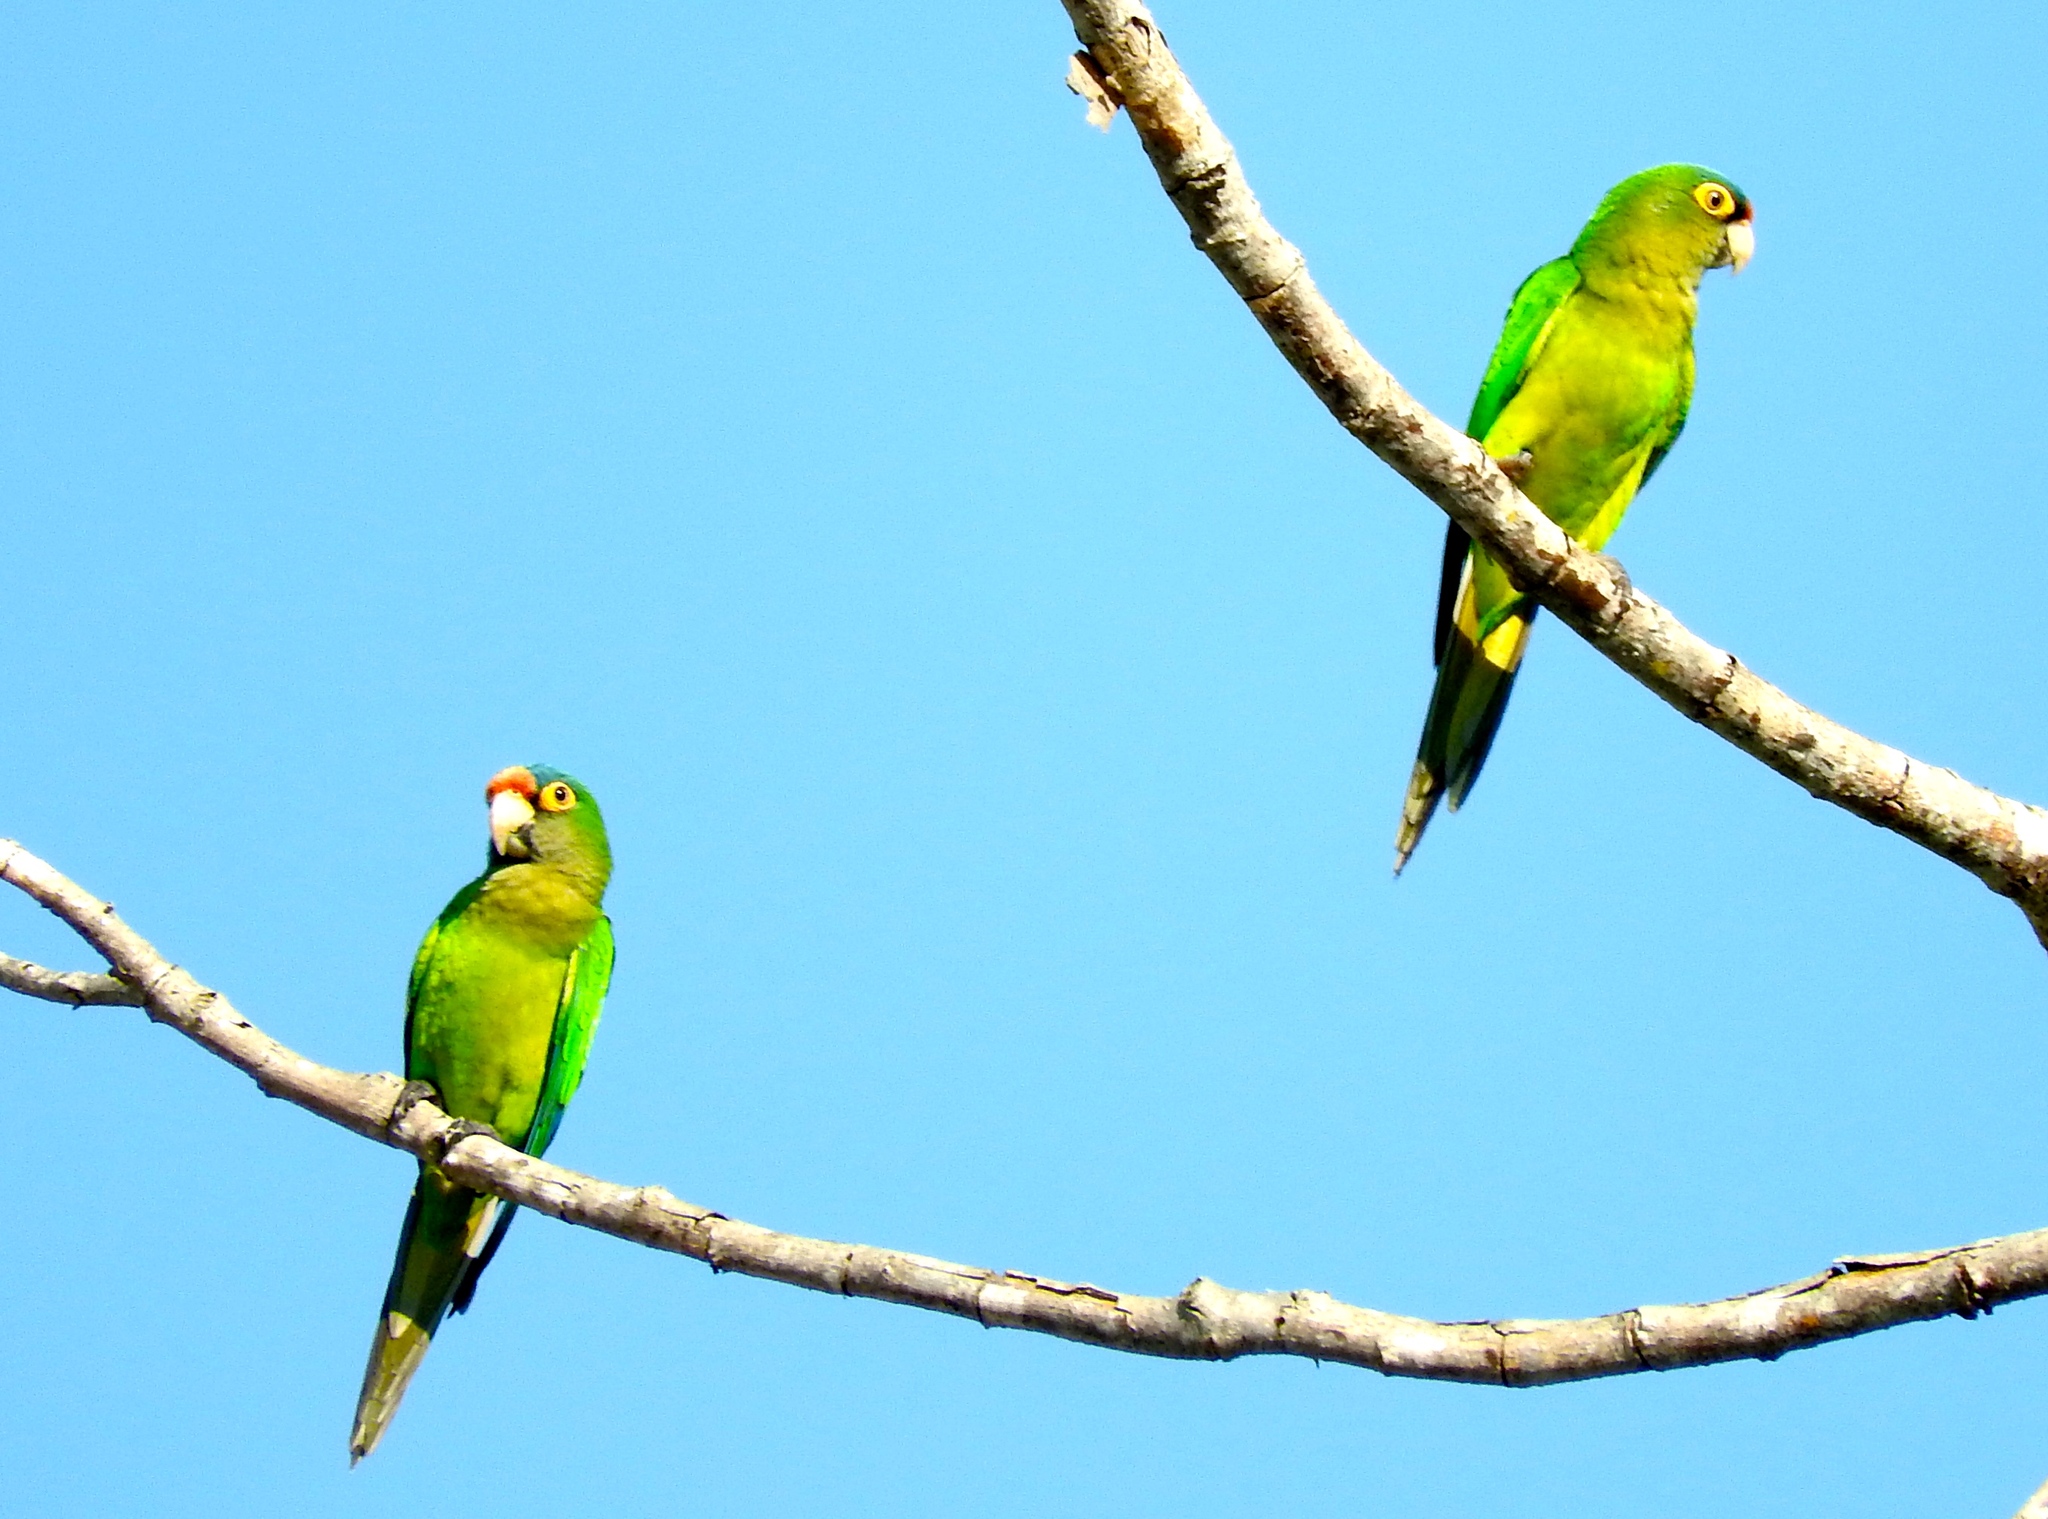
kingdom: Animalia
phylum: Chordata
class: Aves
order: Psittaciformes
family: Psittacidae
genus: Aratinga
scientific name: Aratinga canicularis
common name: Orange-fronted parakeet
